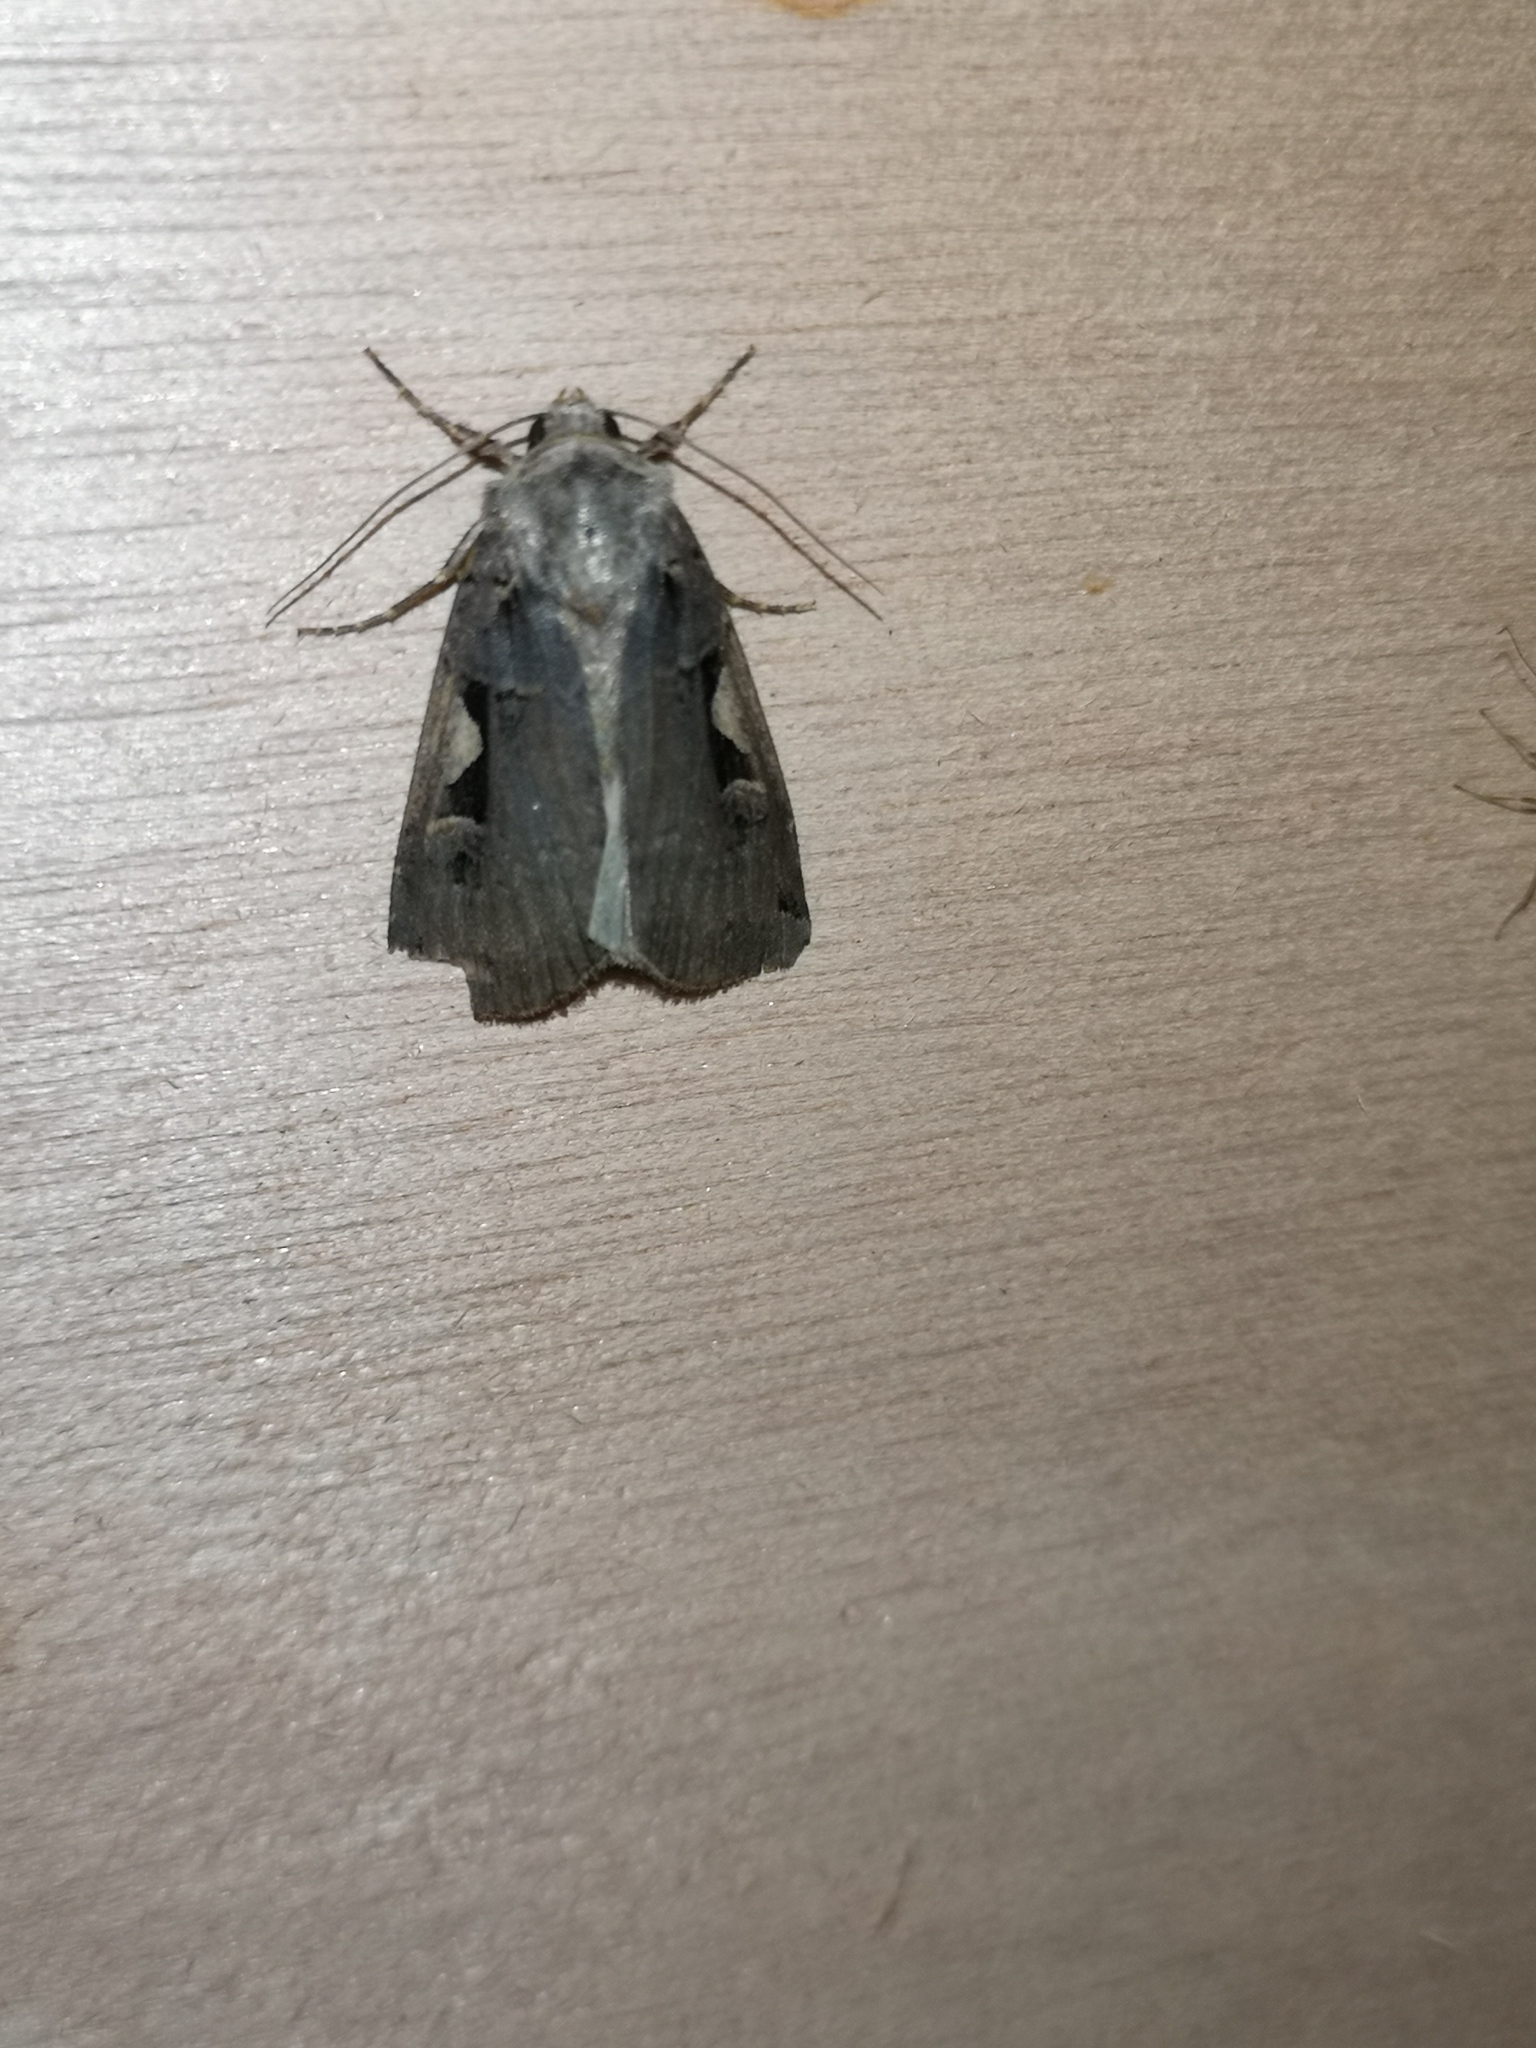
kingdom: Animalia
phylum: Arthropoda
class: Insecta
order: Lepidoptera
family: Noctuidae
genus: Xestia
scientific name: Xestia c-nigrum
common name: Setaceous hebrew character
